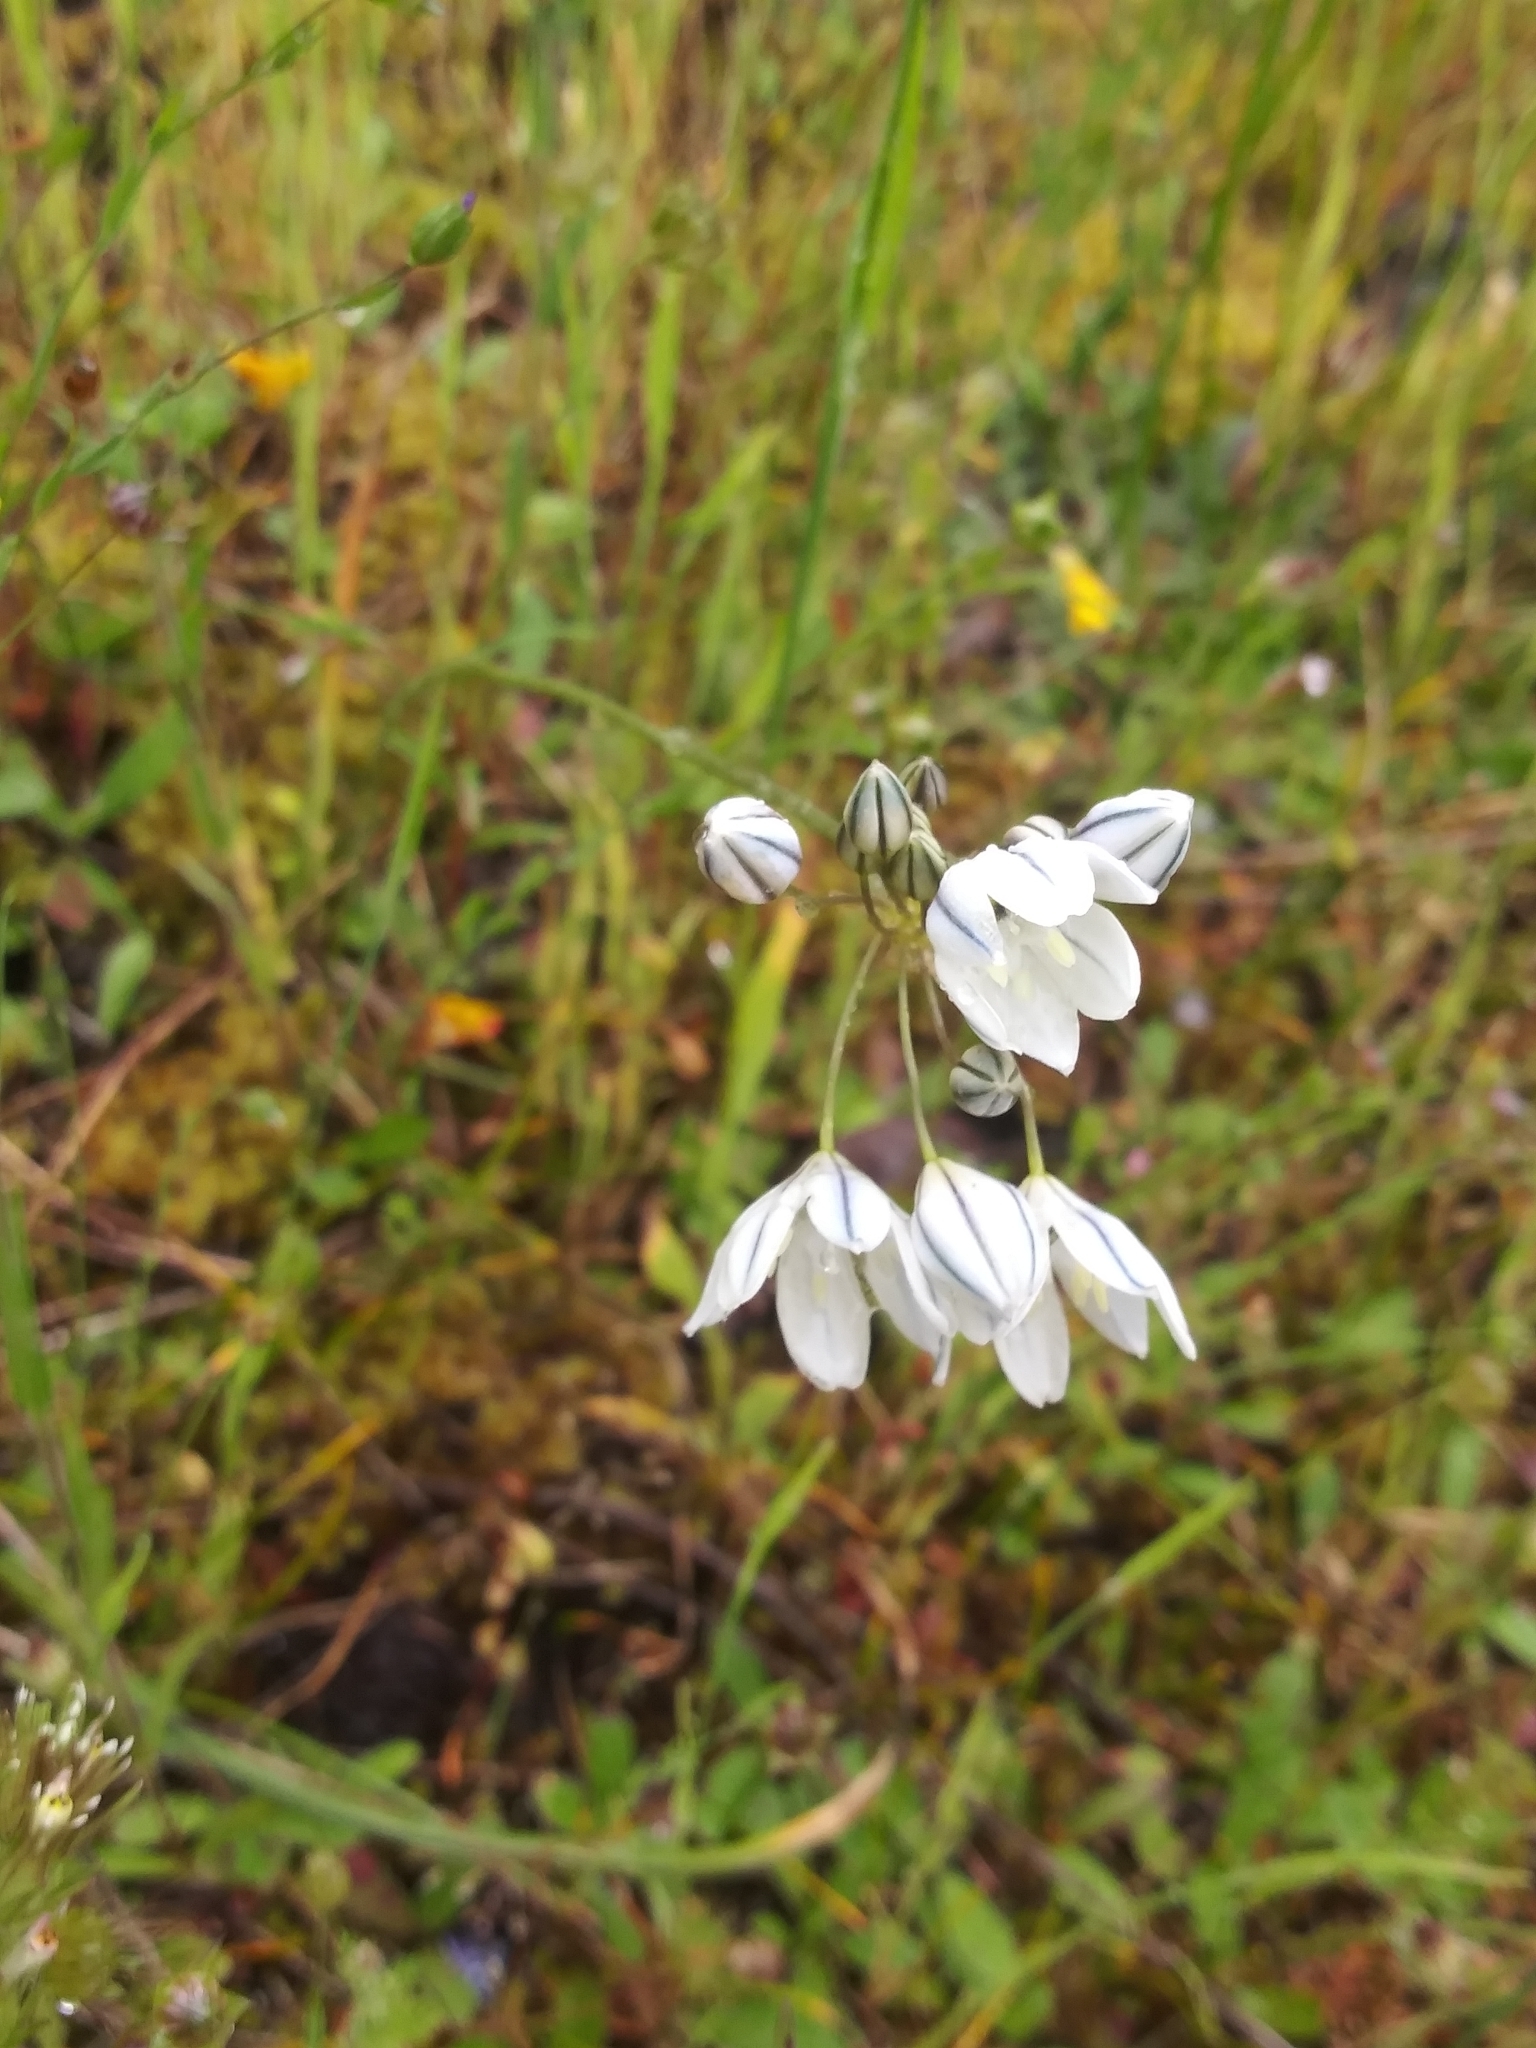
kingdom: Plantae
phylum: Tracheophyta
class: Liliopsida
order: Asparagales
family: Asparagaceae
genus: Triteleia
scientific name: Triteleia hyacinthina
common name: White brodiaea
